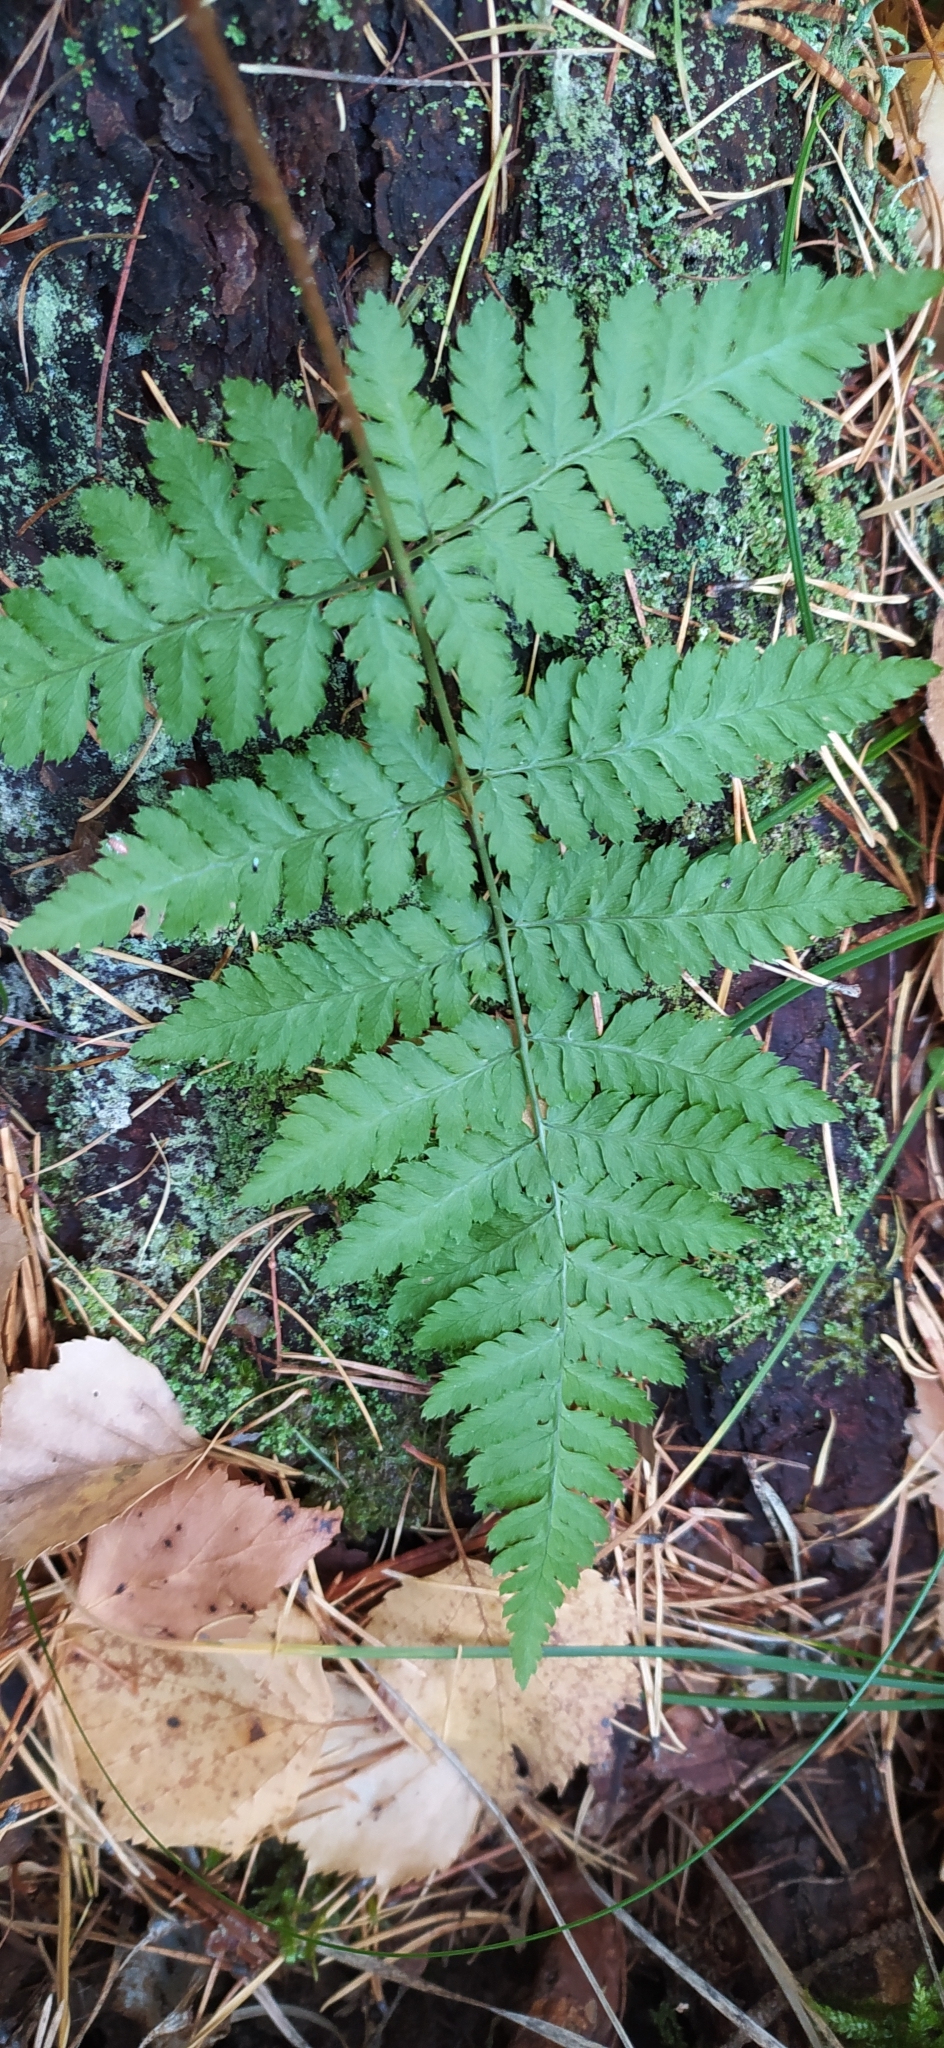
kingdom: Plantae
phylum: Tracheophyta
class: Polypodiopsida
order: Polypodiales
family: Dryopteridaceae
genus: Dryopteris
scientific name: Dryopteris carthusiana
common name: Narrow buckler-fern
